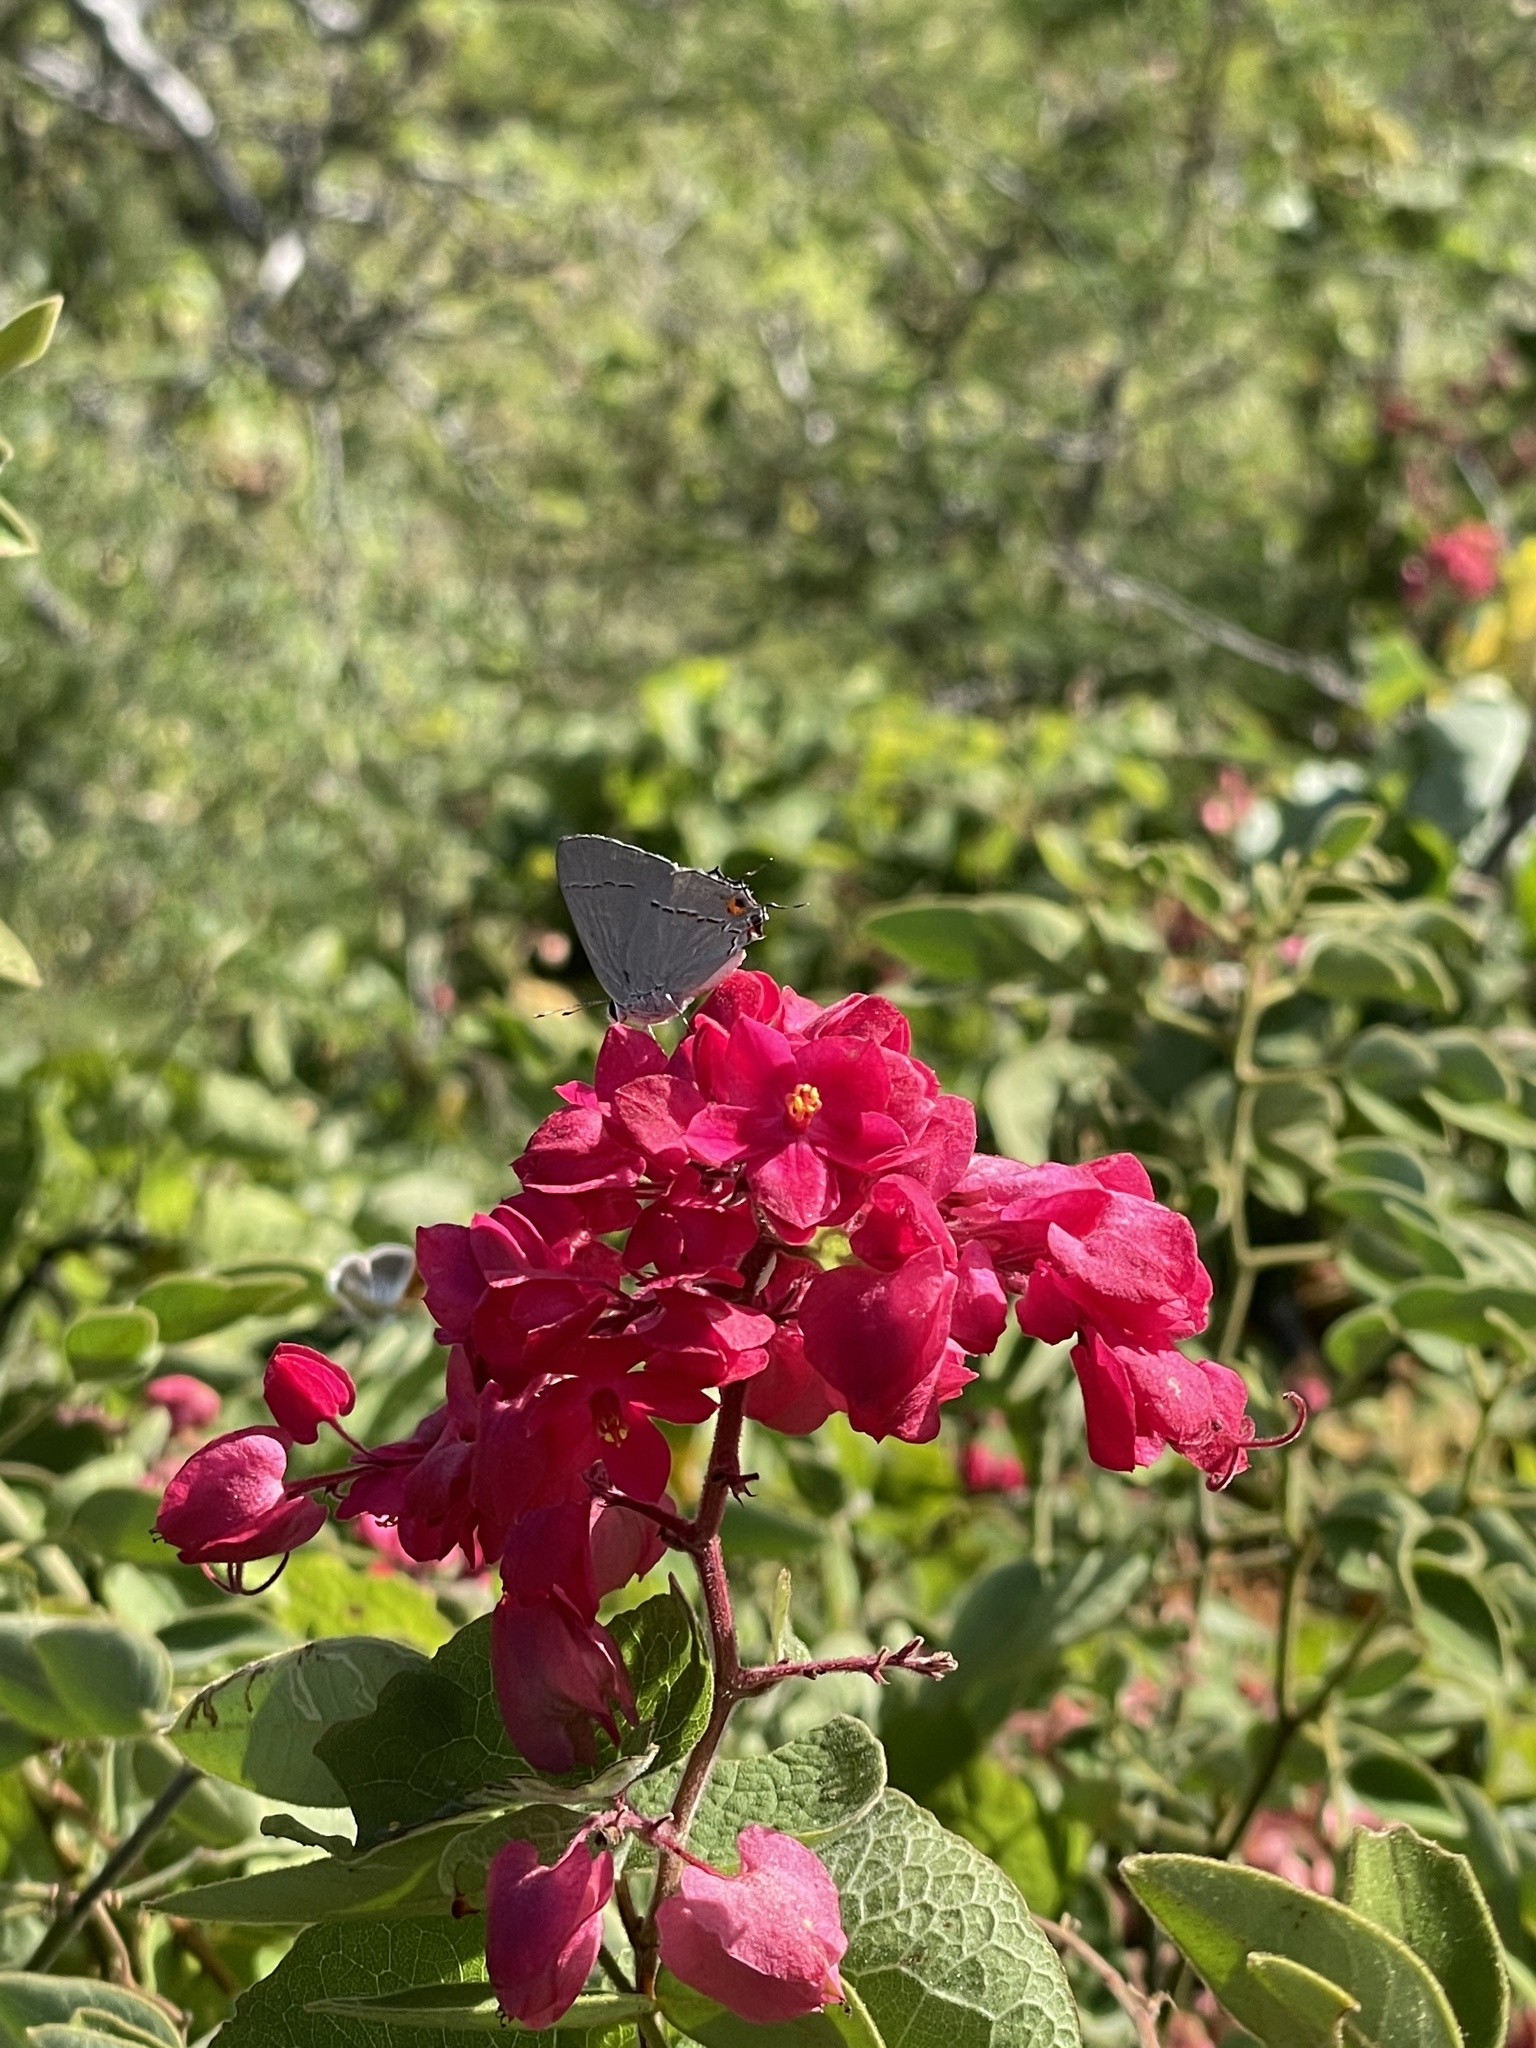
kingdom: Animalia
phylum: Arthropoda
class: Insecta
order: Lepidoptera
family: Lycaenidae
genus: Strymon
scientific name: Strymon melinus
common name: Gray hairstreak
